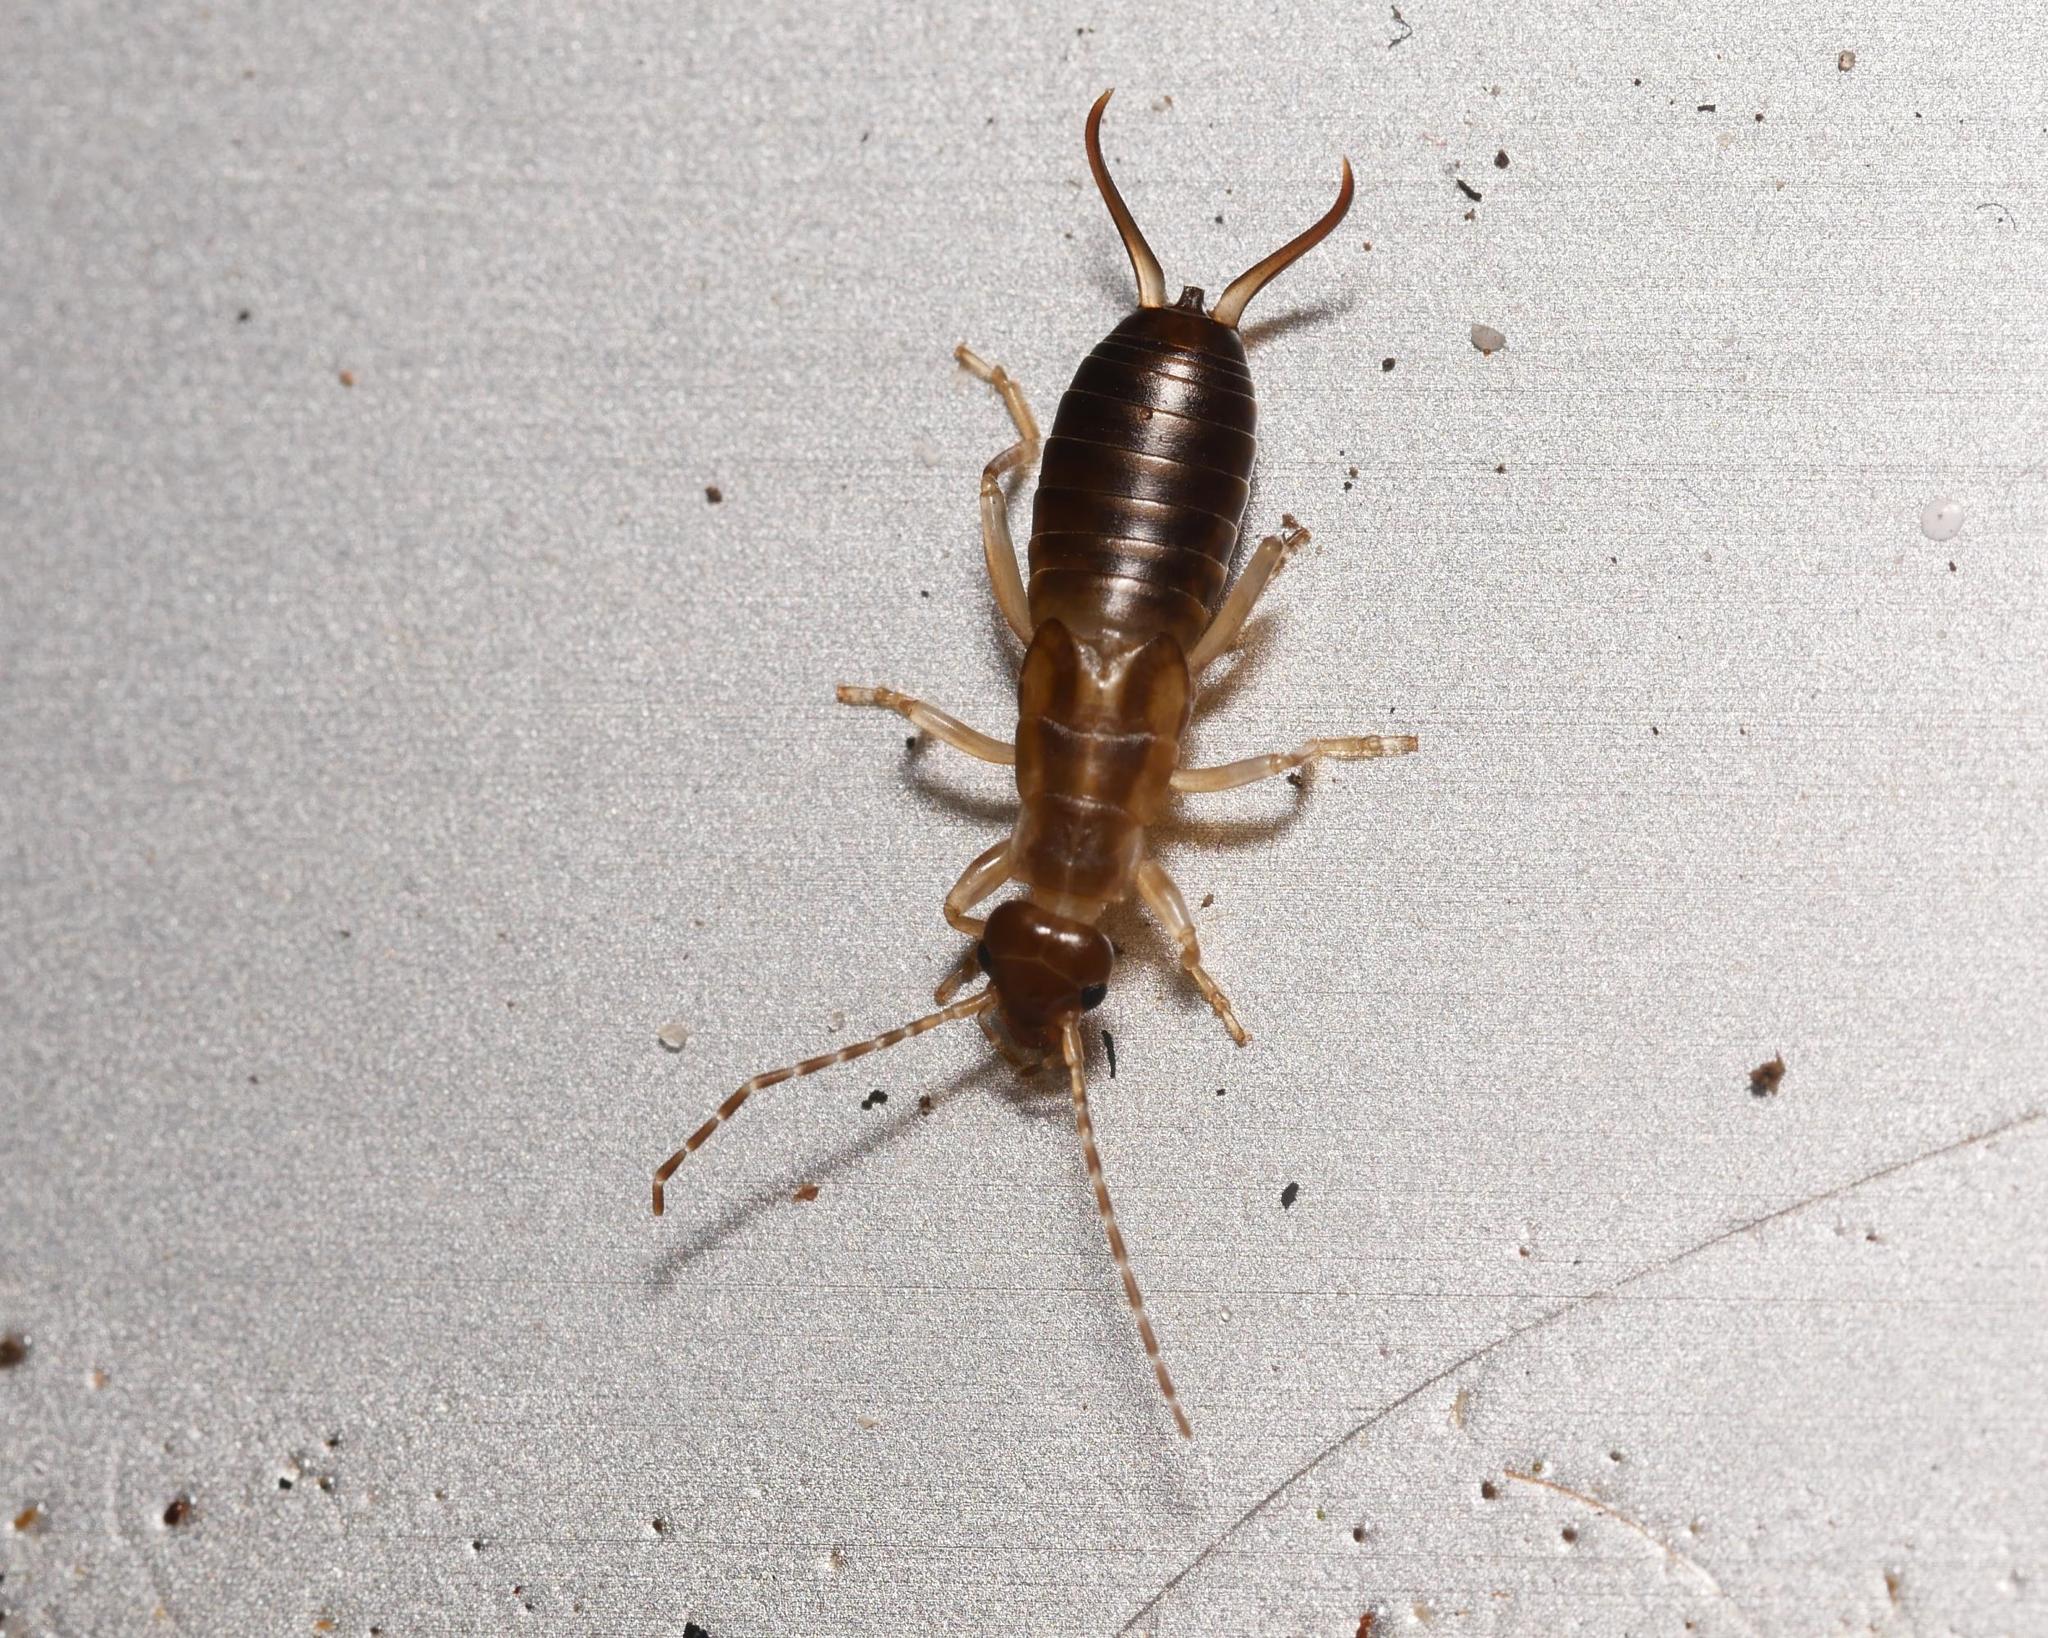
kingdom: Animalia
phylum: Arthropoda
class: Insecta
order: Dermaptera
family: Forficulidae
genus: Forficula
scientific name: Forficula
